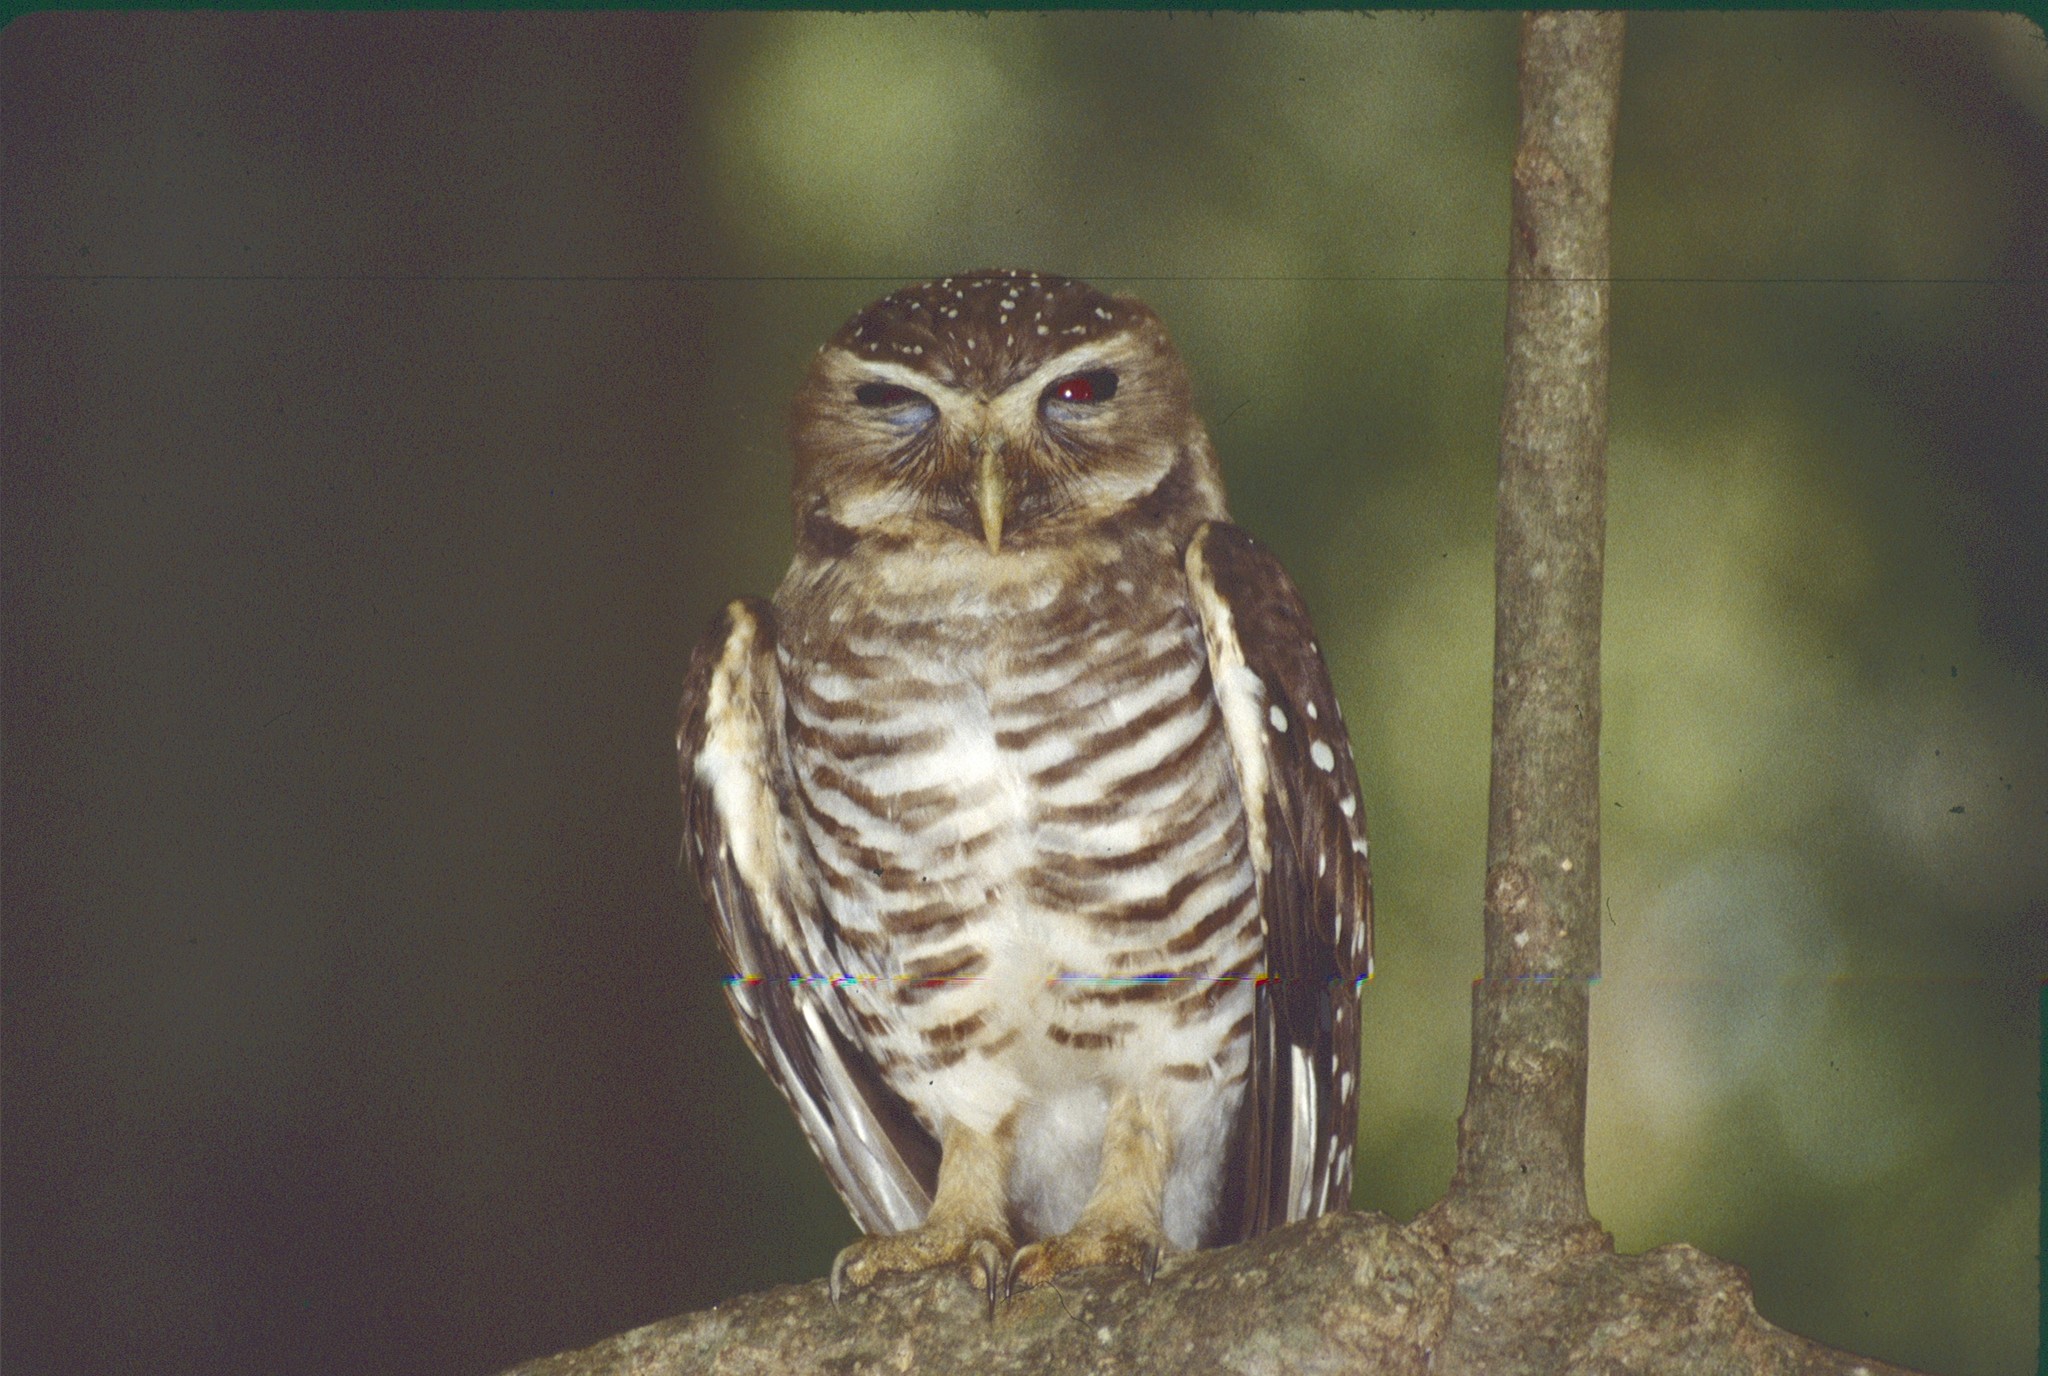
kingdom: Animalia
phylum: Chordata
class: Aves
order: Strigiformes
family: Strigidae
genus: Ninox
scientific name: Ninox superciliaris
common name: White-browed hawk-owl
